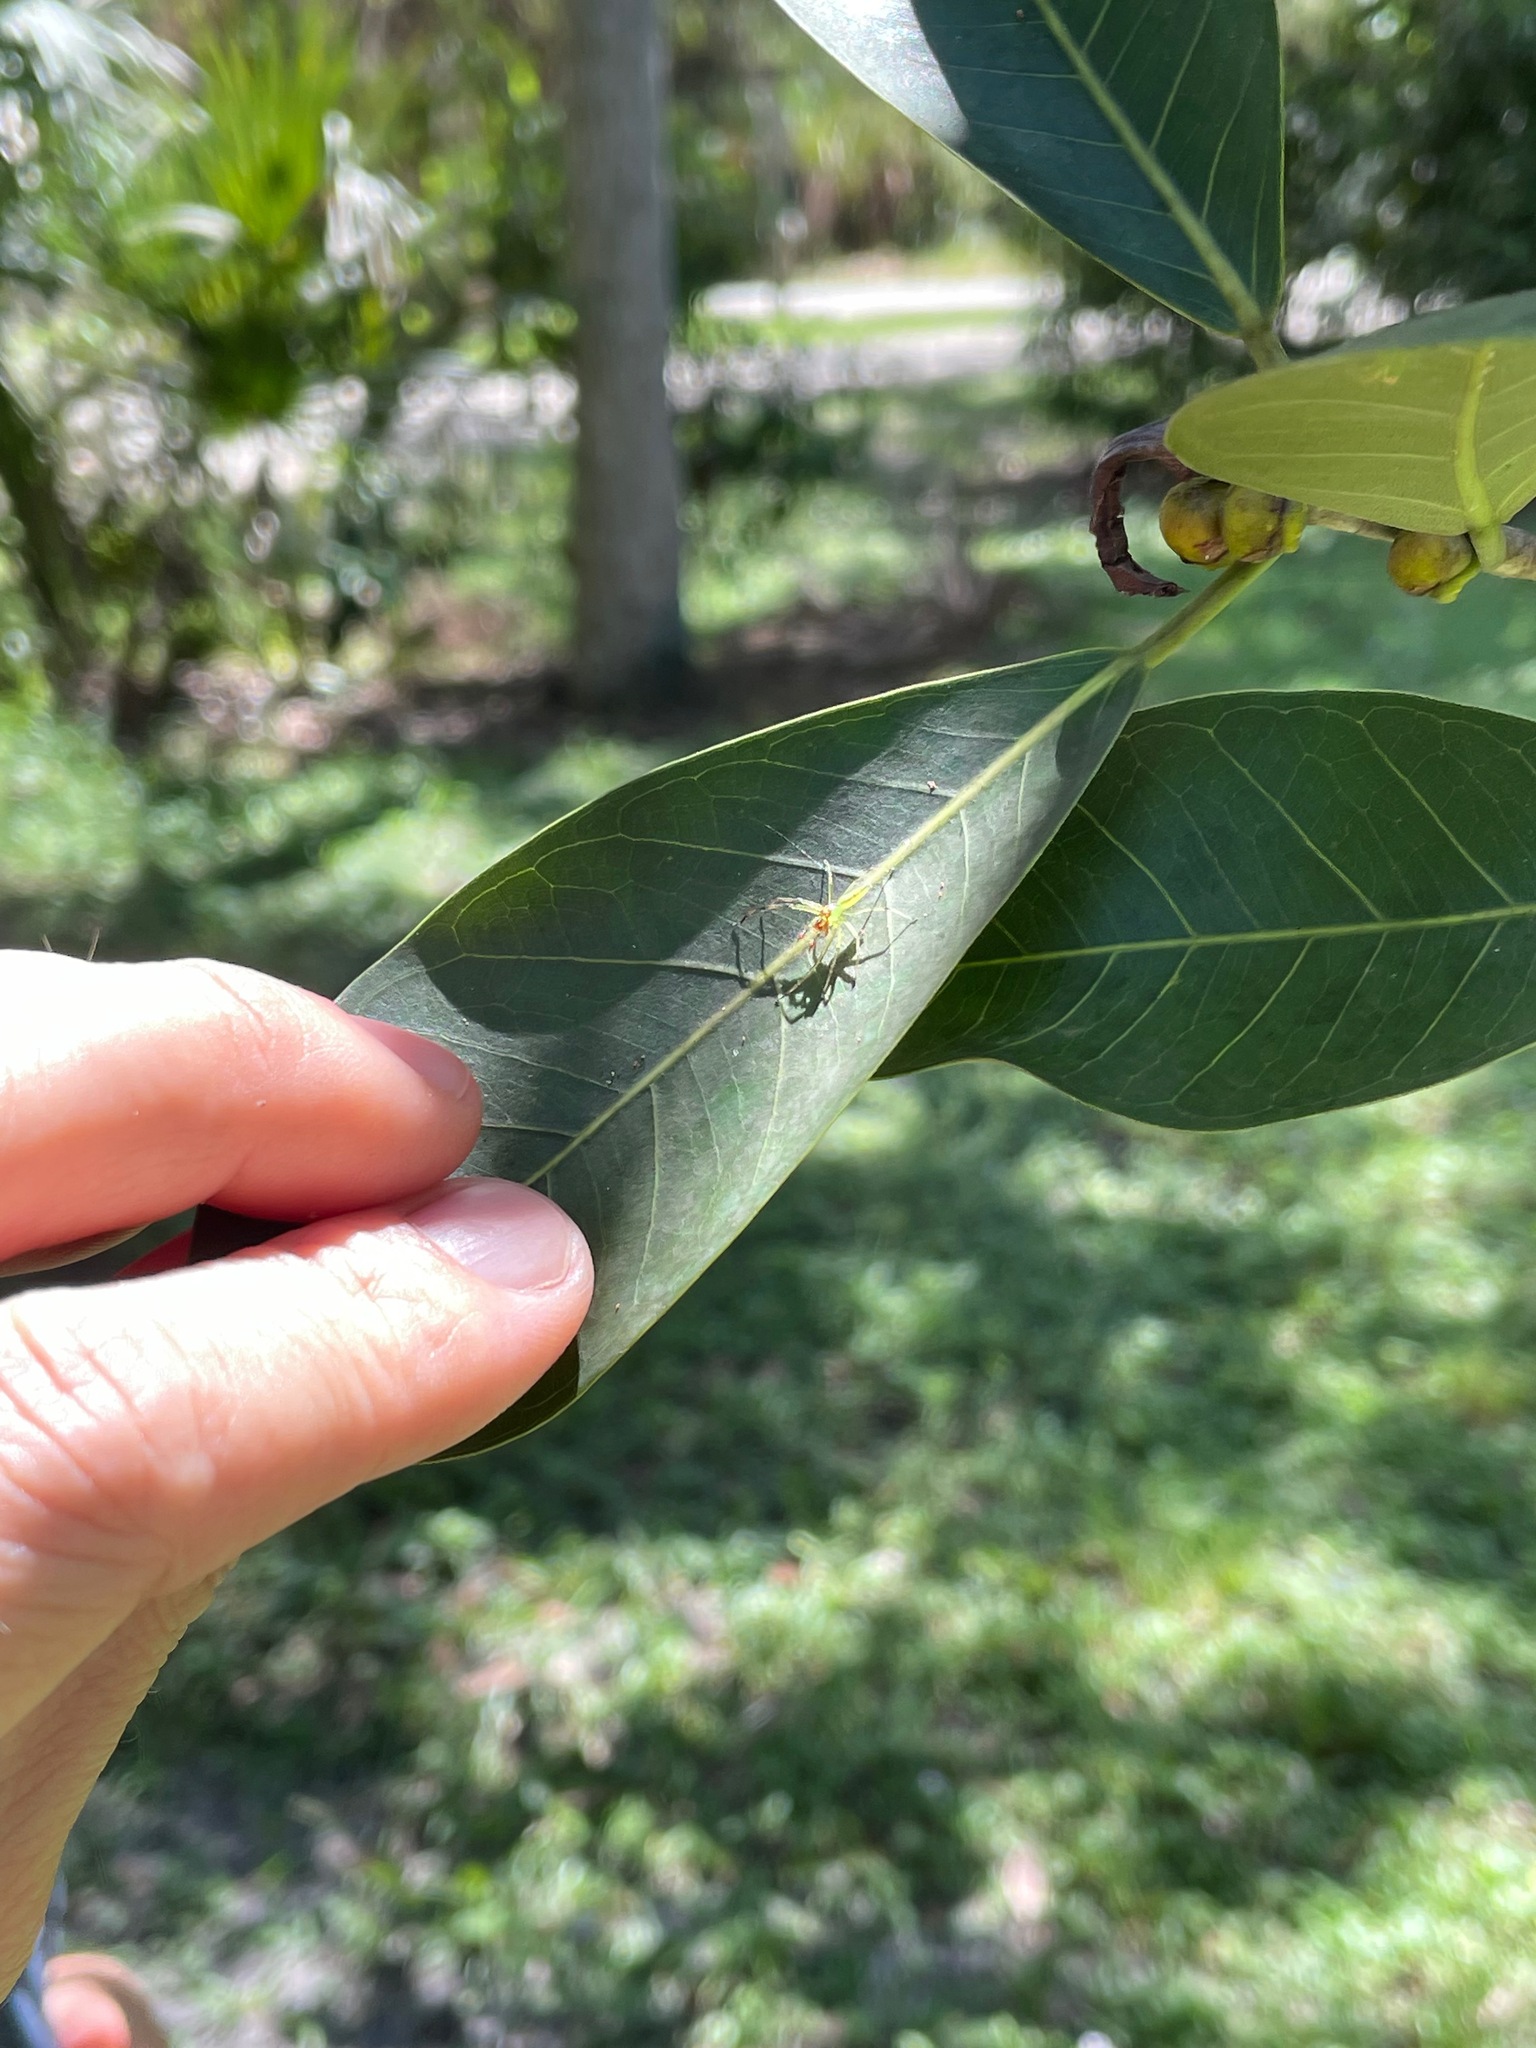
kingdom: Animalia
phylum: Arthropoda
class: Arachnida
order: Araneae
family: Salticidae
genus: Lyssomanes
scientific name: Lyssomanes viridis
